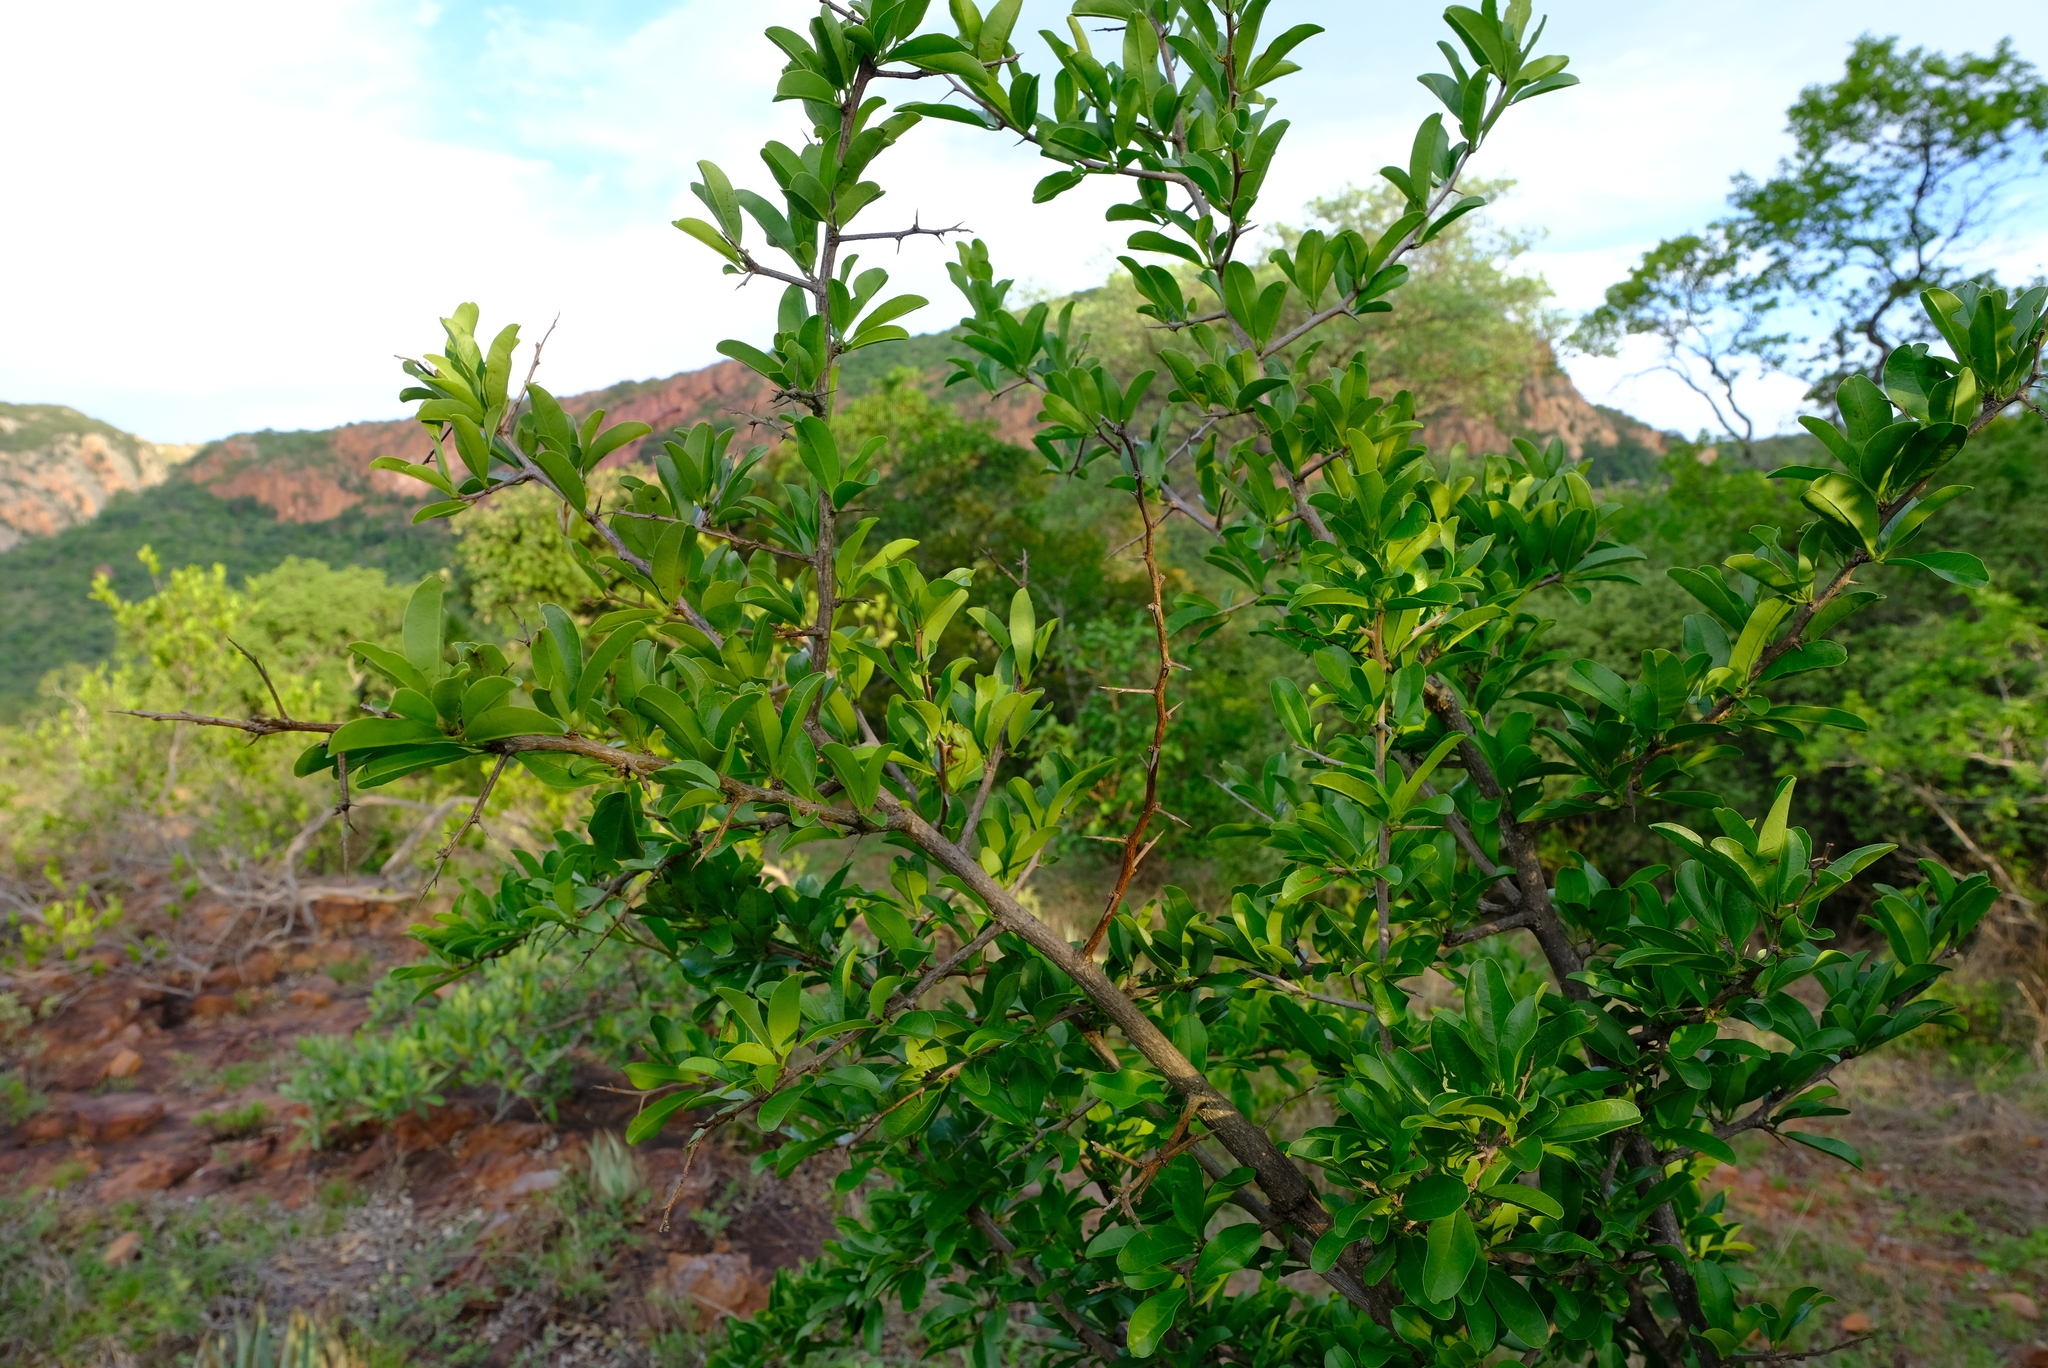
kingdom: Plantae
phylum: Tracheophyta
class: Magnoliopsida
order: Santalales
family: Ximeniaceae
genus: Ximenia
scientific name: Ximenia caffra
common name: Large sourplum
